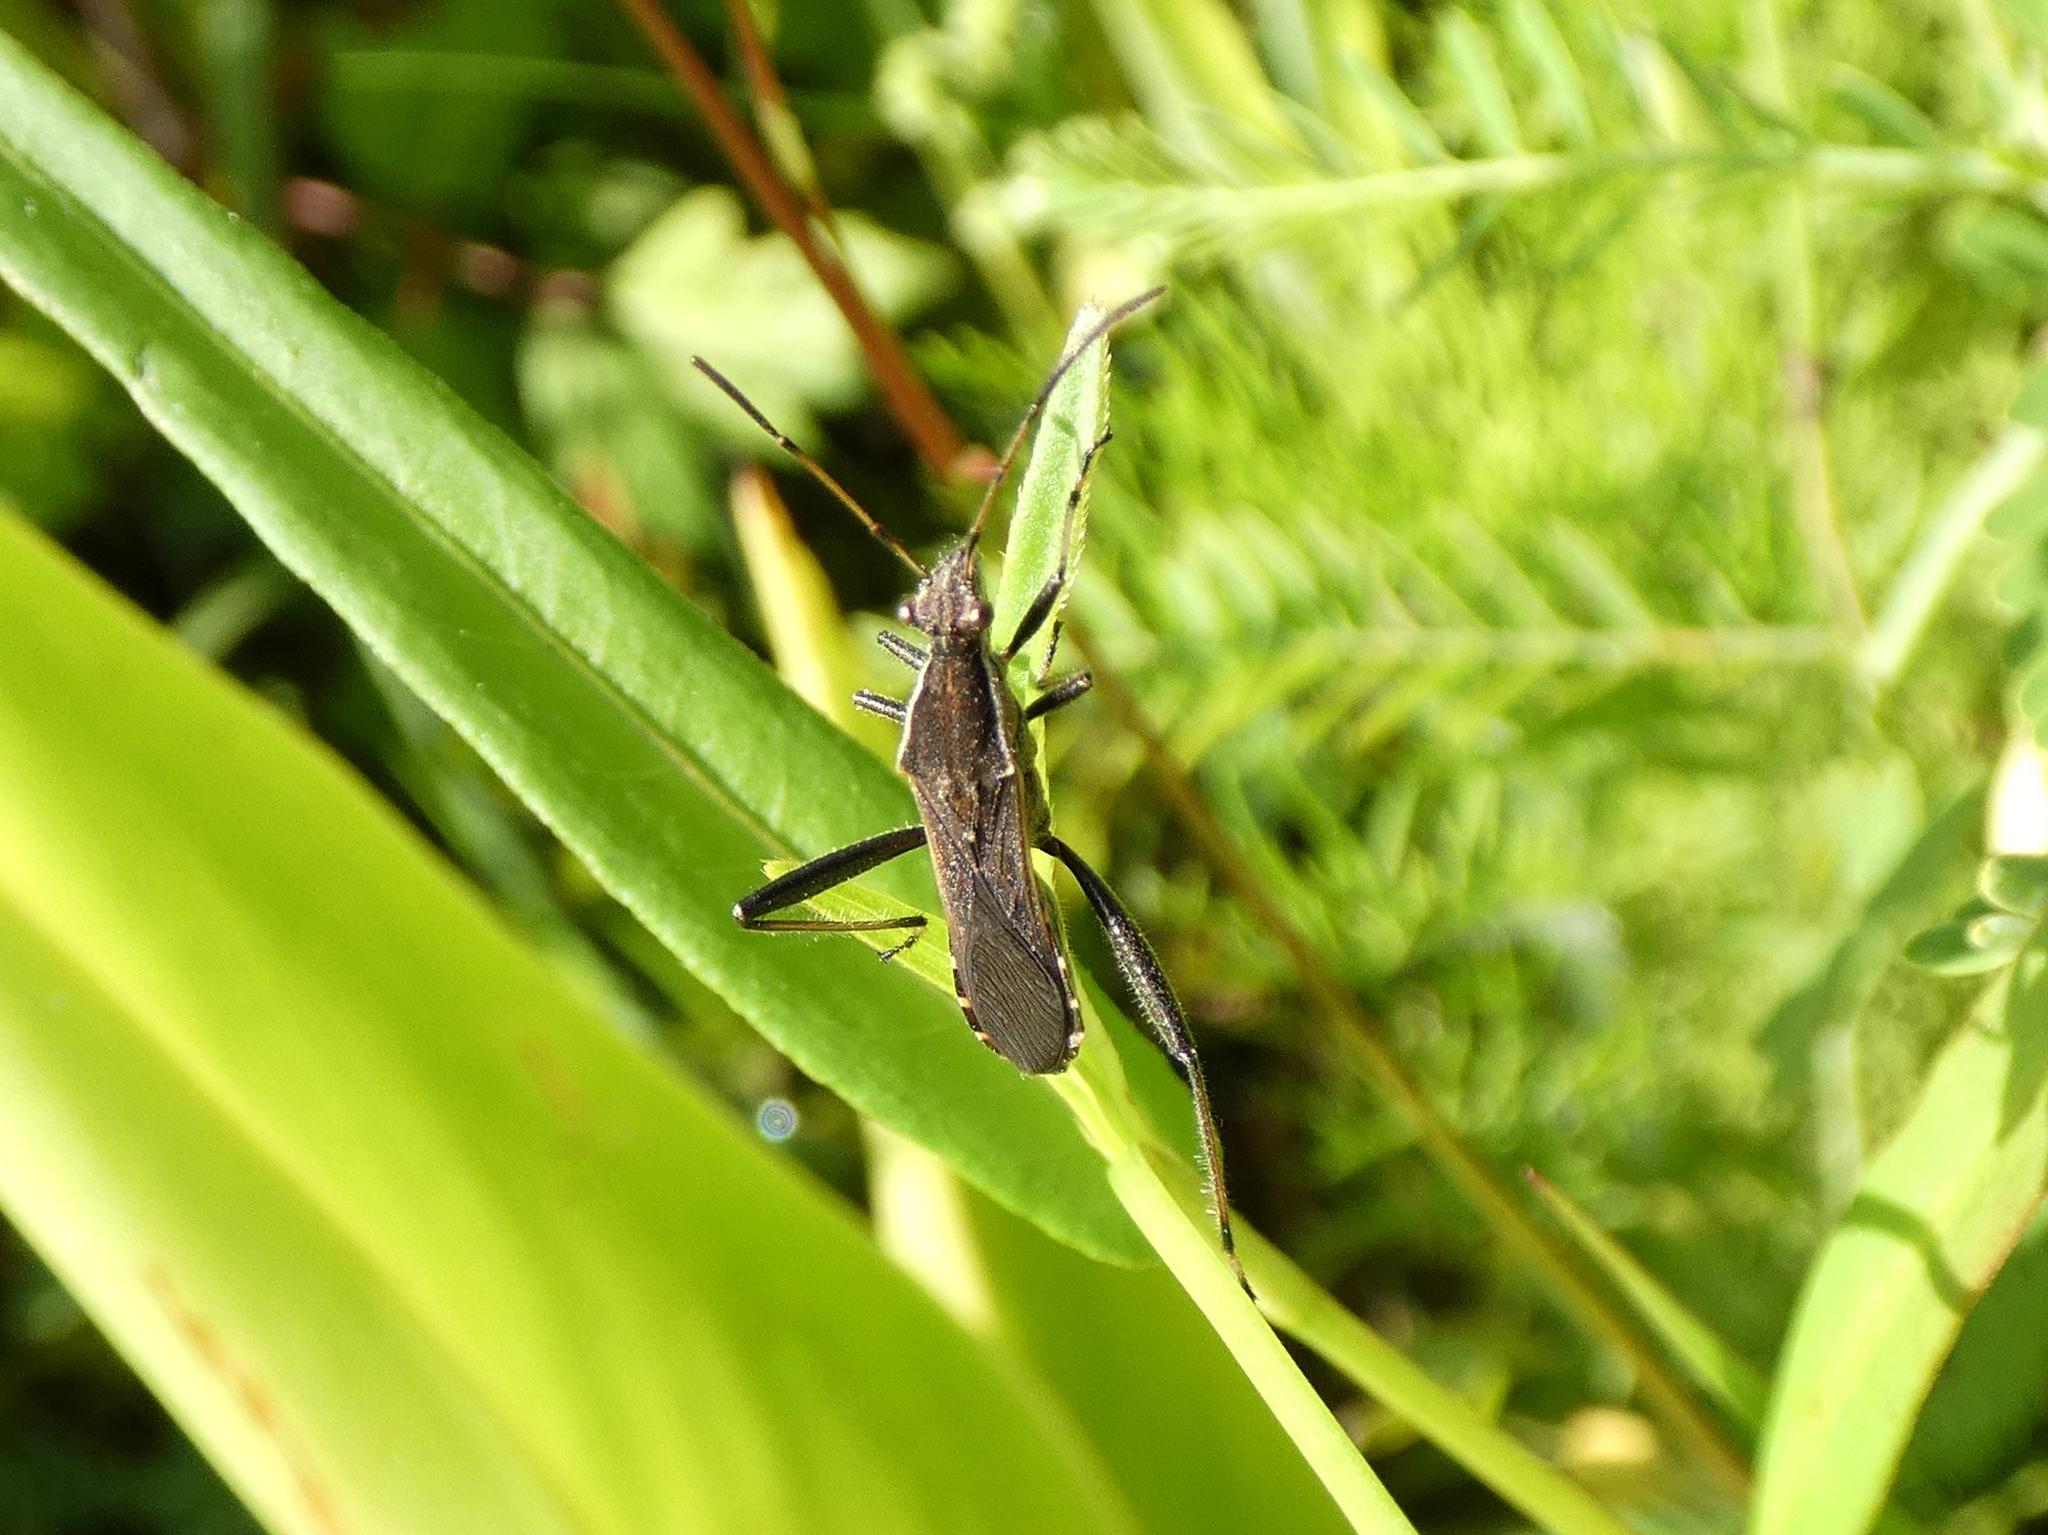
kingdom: Animalia
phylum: Arthropoda
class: Insecta
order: Hemiptera
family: Alydidae
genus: Alydus
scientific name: Alydus pilosulus
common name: Broad-headed bug
